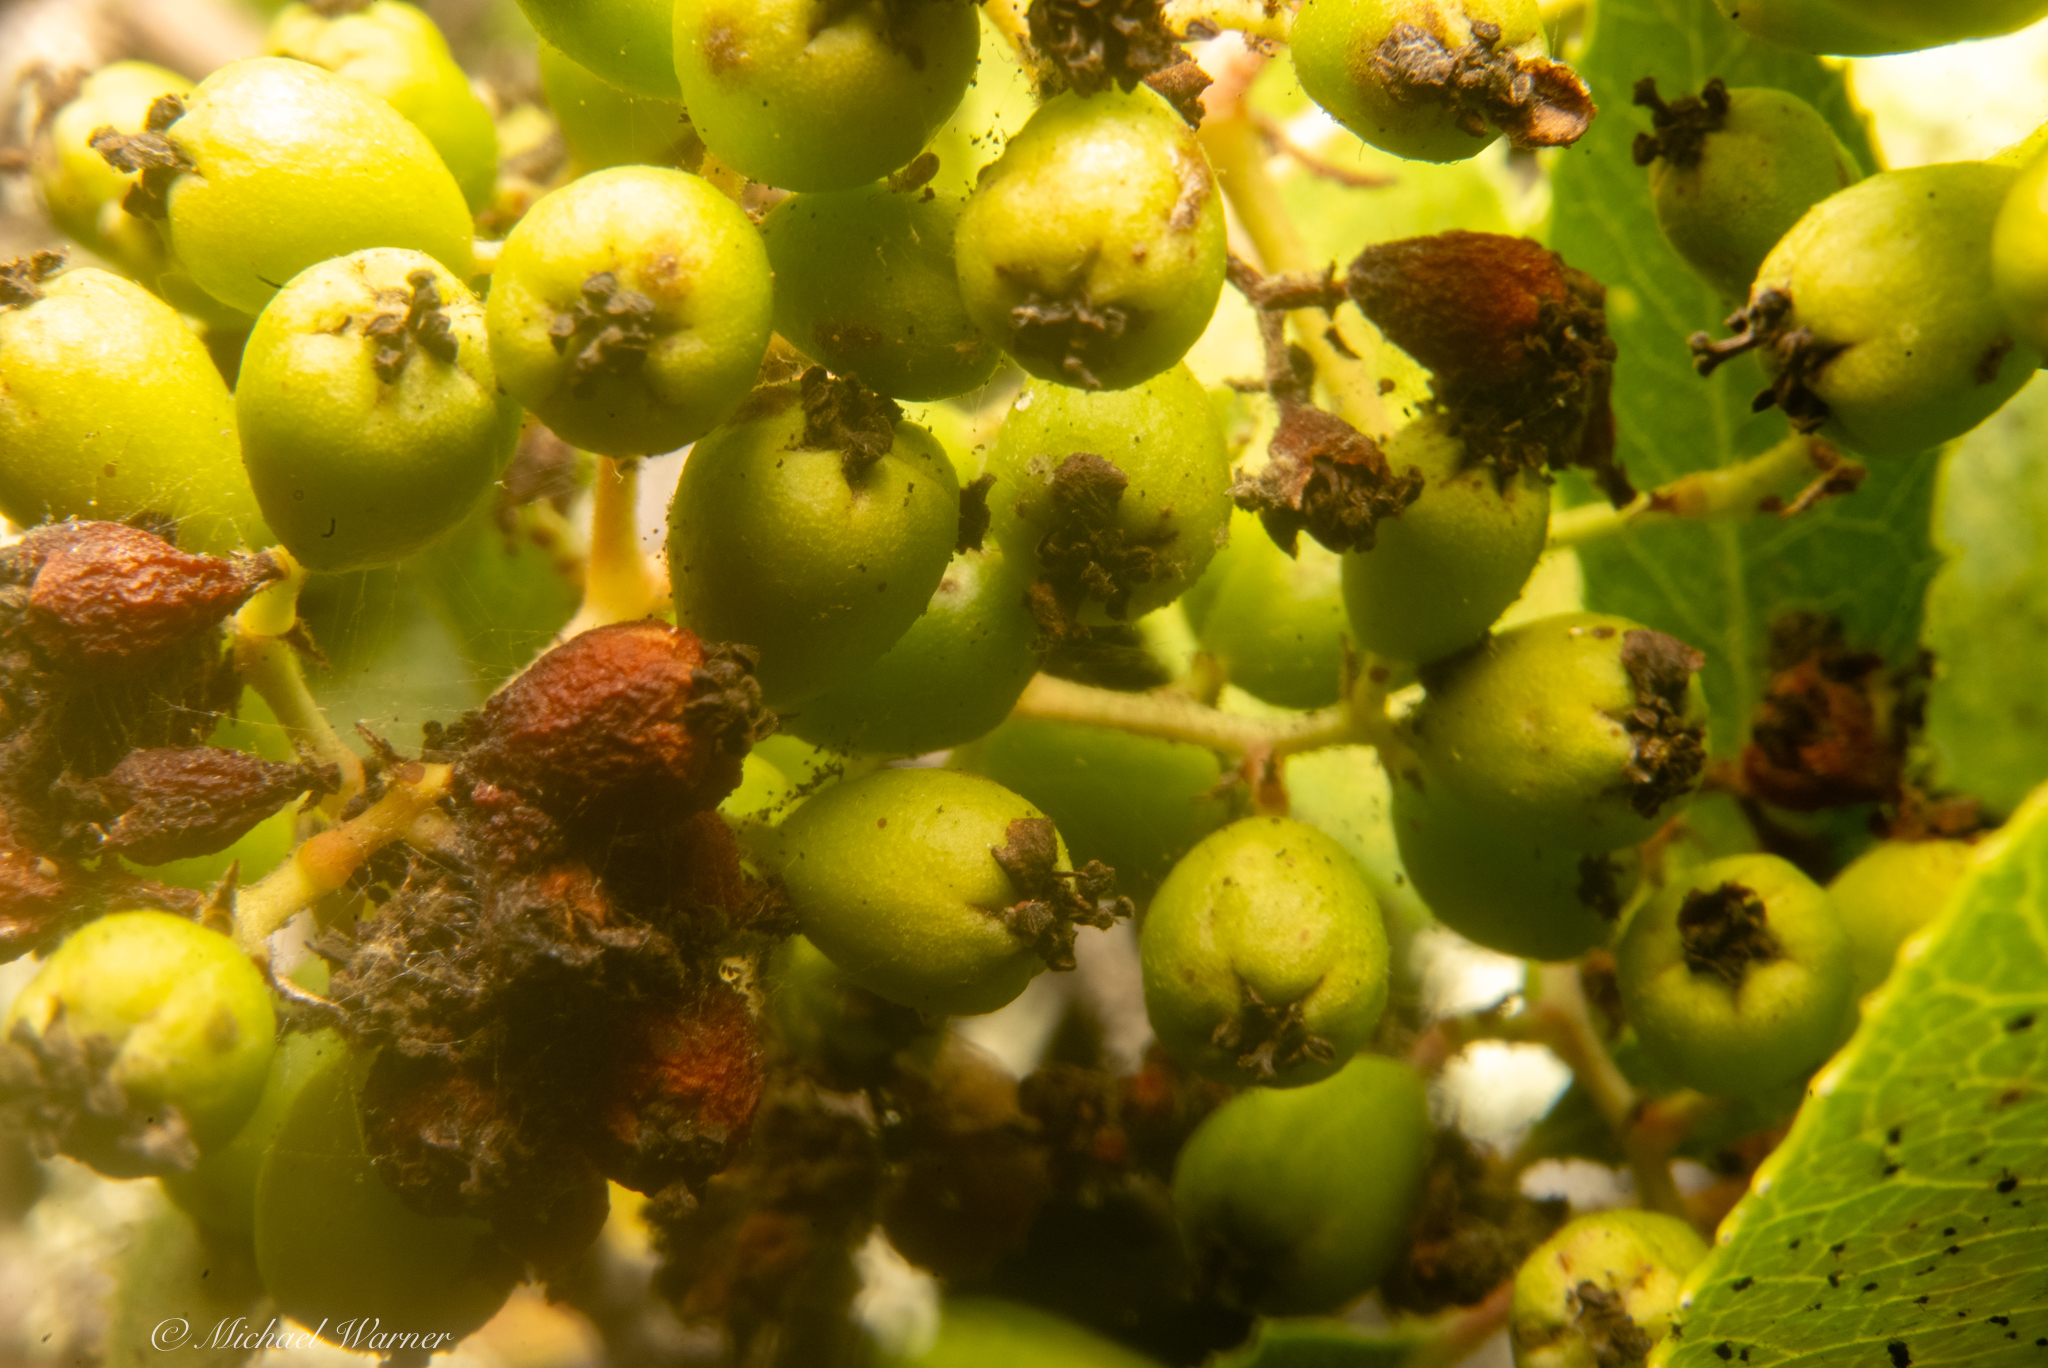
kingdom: Plantae
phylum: Tracheophyta
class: Magnoliopsida
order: Rosales
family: Rosaceae
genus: Heteromeles
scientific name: Heteromeles arbutifolia
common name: California-holly
